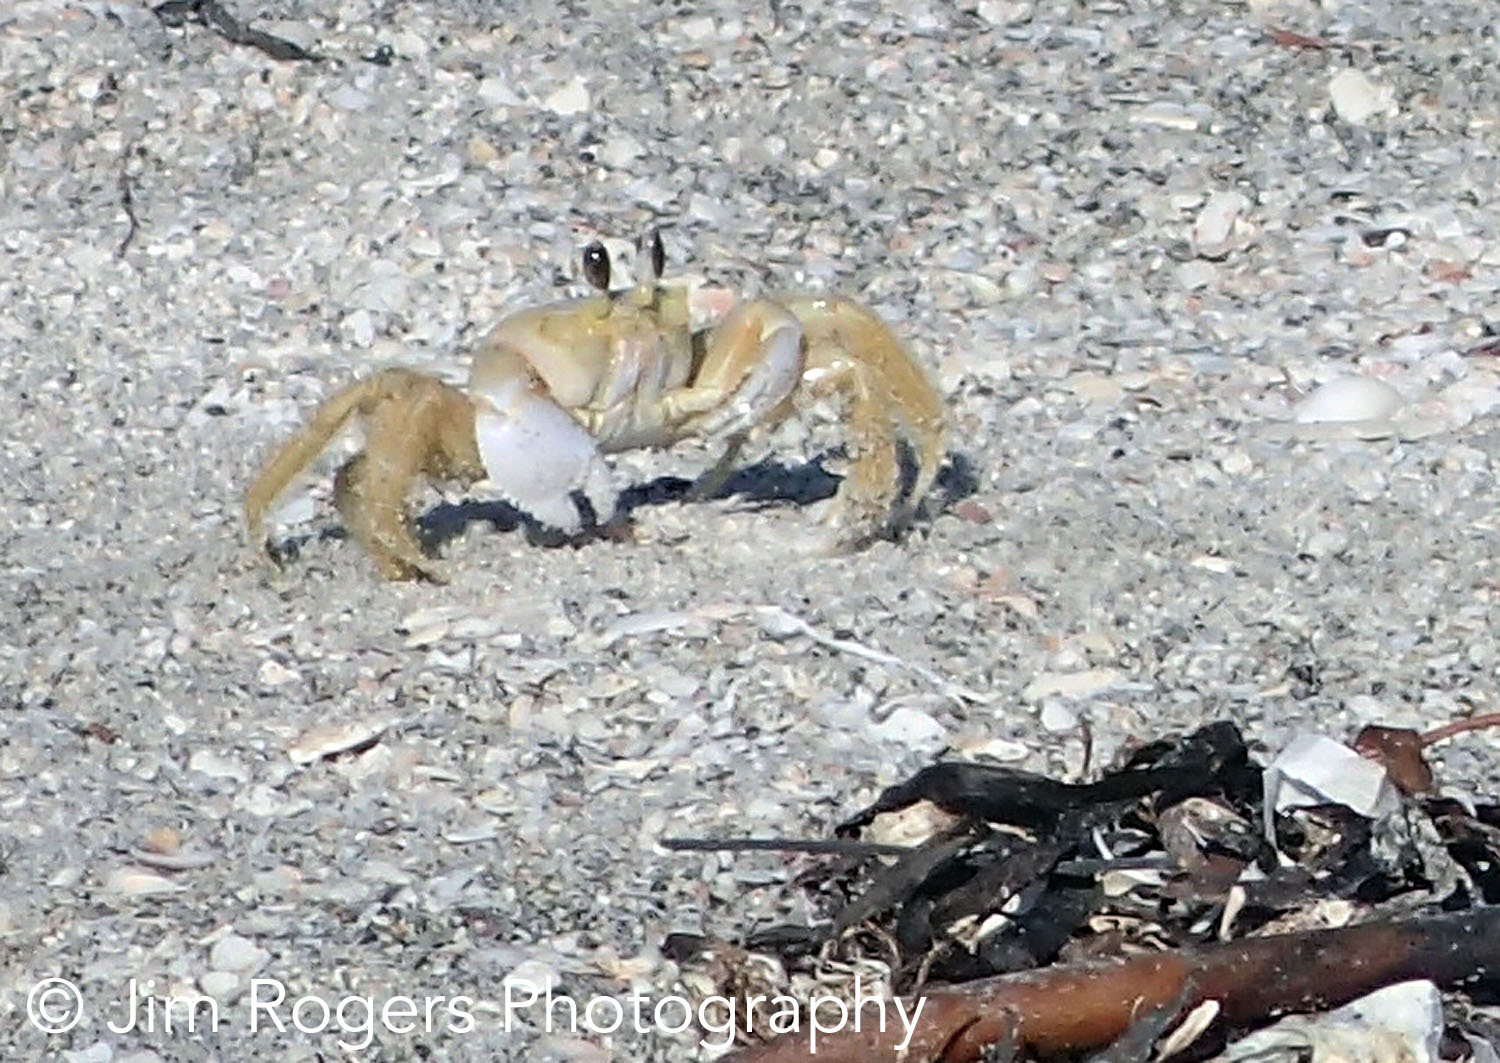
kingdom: Animalia
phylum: Arthropoda
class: Malacostraca
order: Decapoda
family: Ocypodidae
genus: Ocypode
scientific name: Ocypode quadrata
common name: Ghost crab
